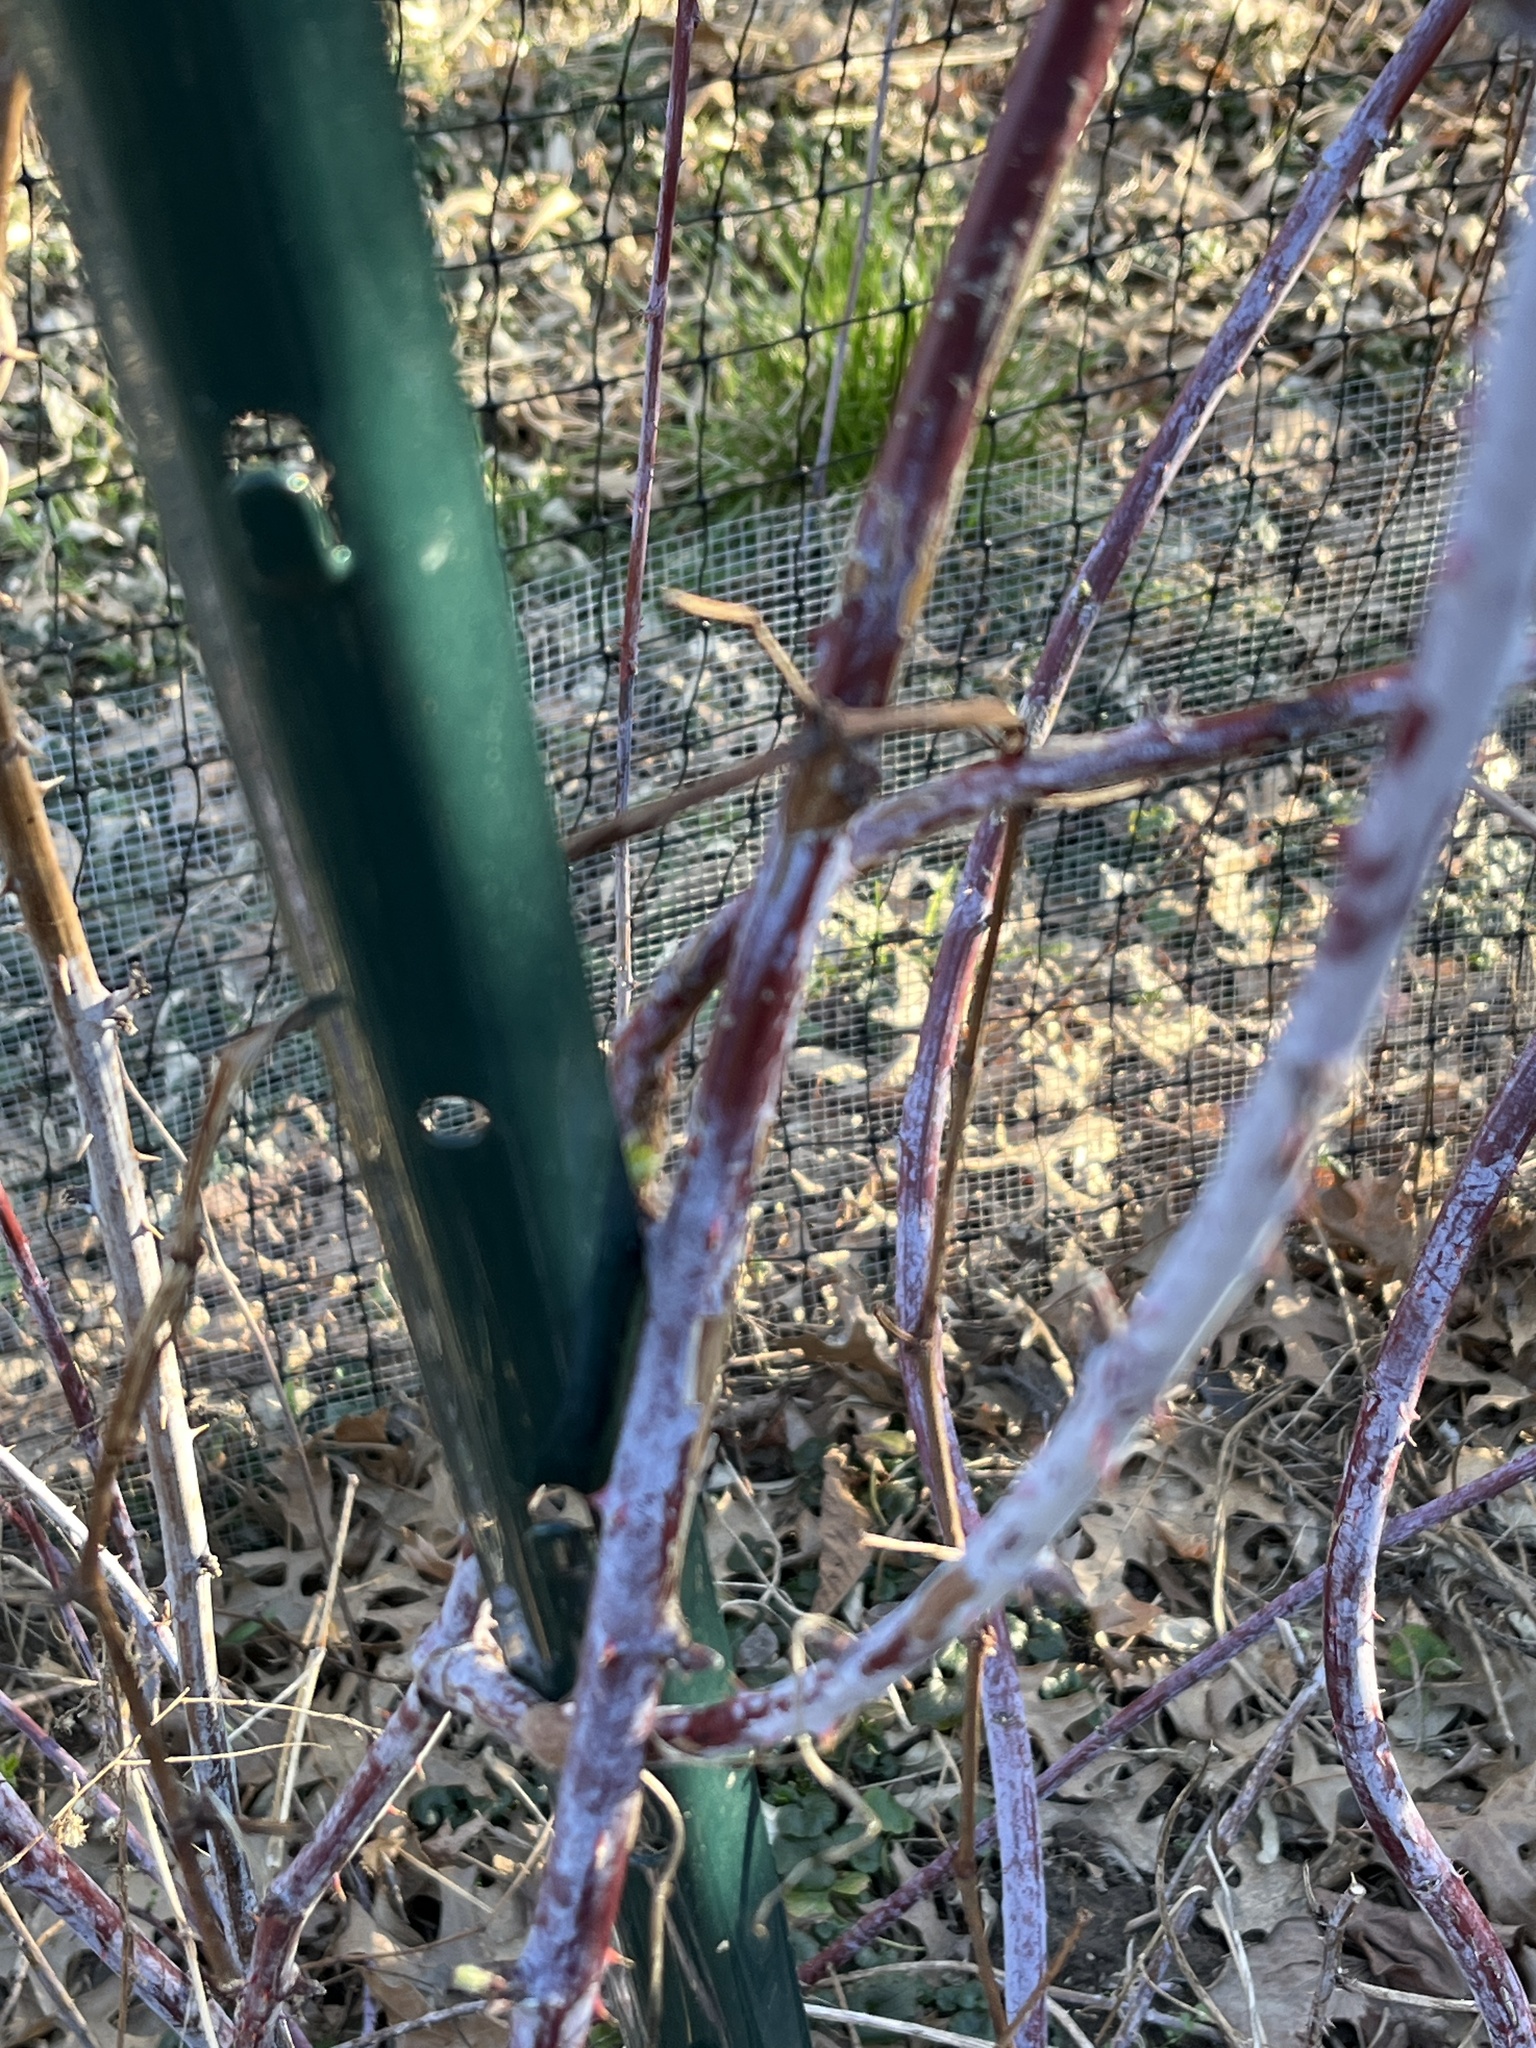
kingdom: Plantae
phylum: Tracheophyta
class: Magnoliopsida
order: Rosales
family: Rosaceae
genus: Rubus
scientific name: Rubus occidentalis
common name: Black raspberry
